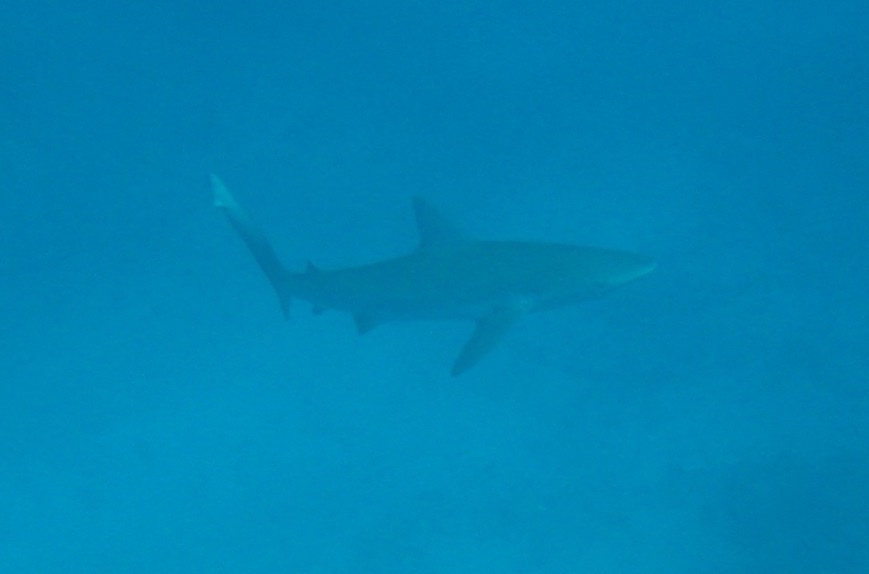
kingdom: Animalia
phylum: Chordata
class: Elasmobranchii
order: Carcharhiniformes
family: Carcharhinidae
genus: Carcharhinus
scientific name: Carcharhinus galapagensis
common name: Galapagos shark
